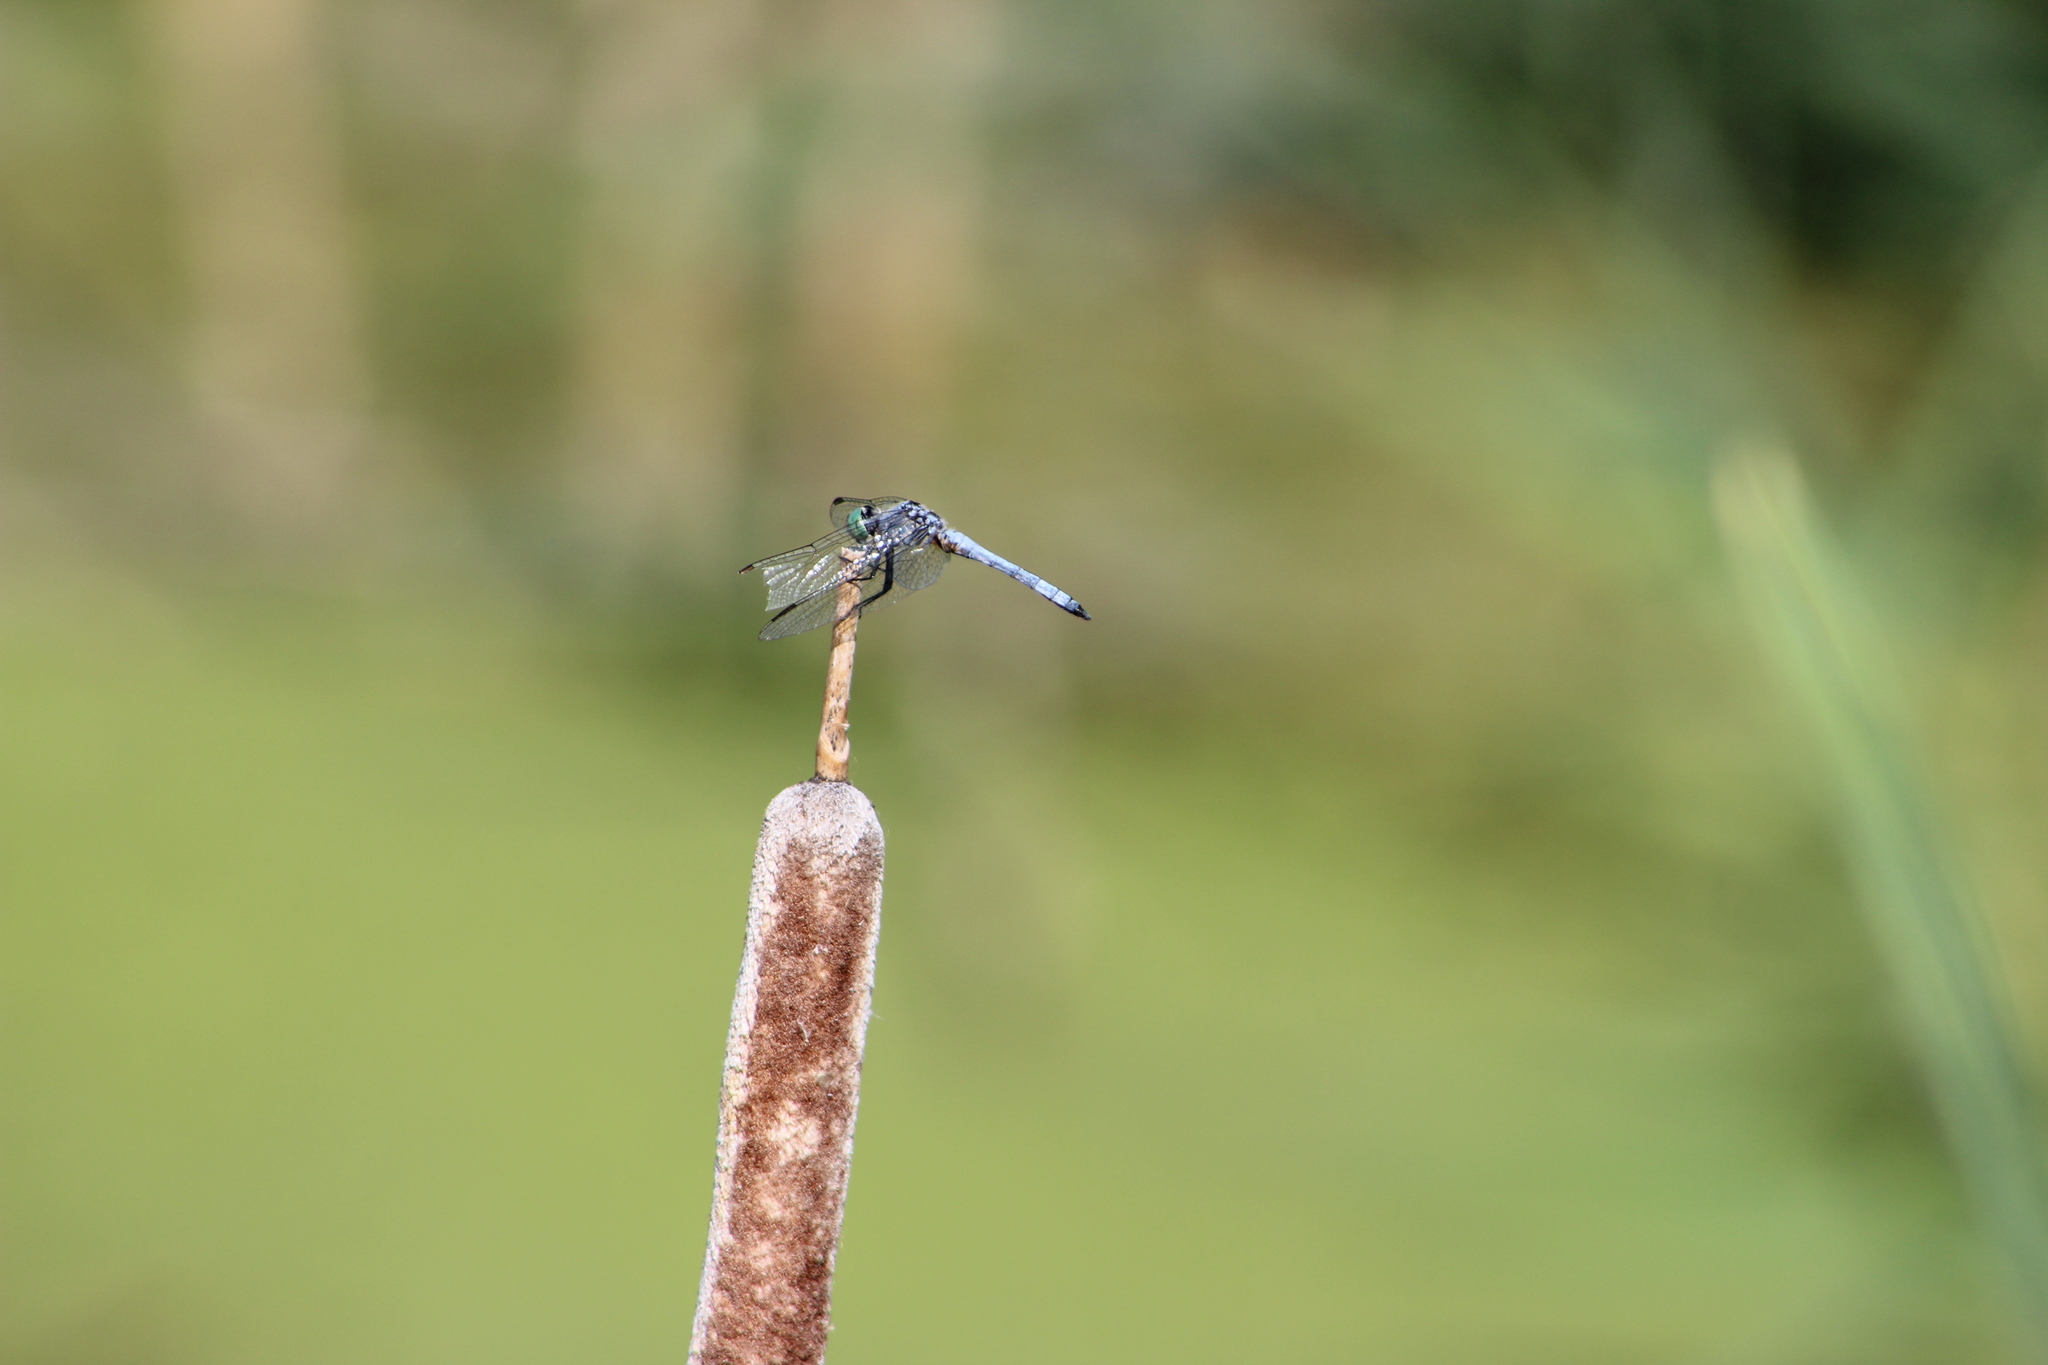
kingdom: Animalia
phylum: Arthropoda
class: Insecta
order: Odonata
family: Libellulidae
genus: Pachydiplax
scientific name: Pachydiplax longipennis
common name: Blue dasher
